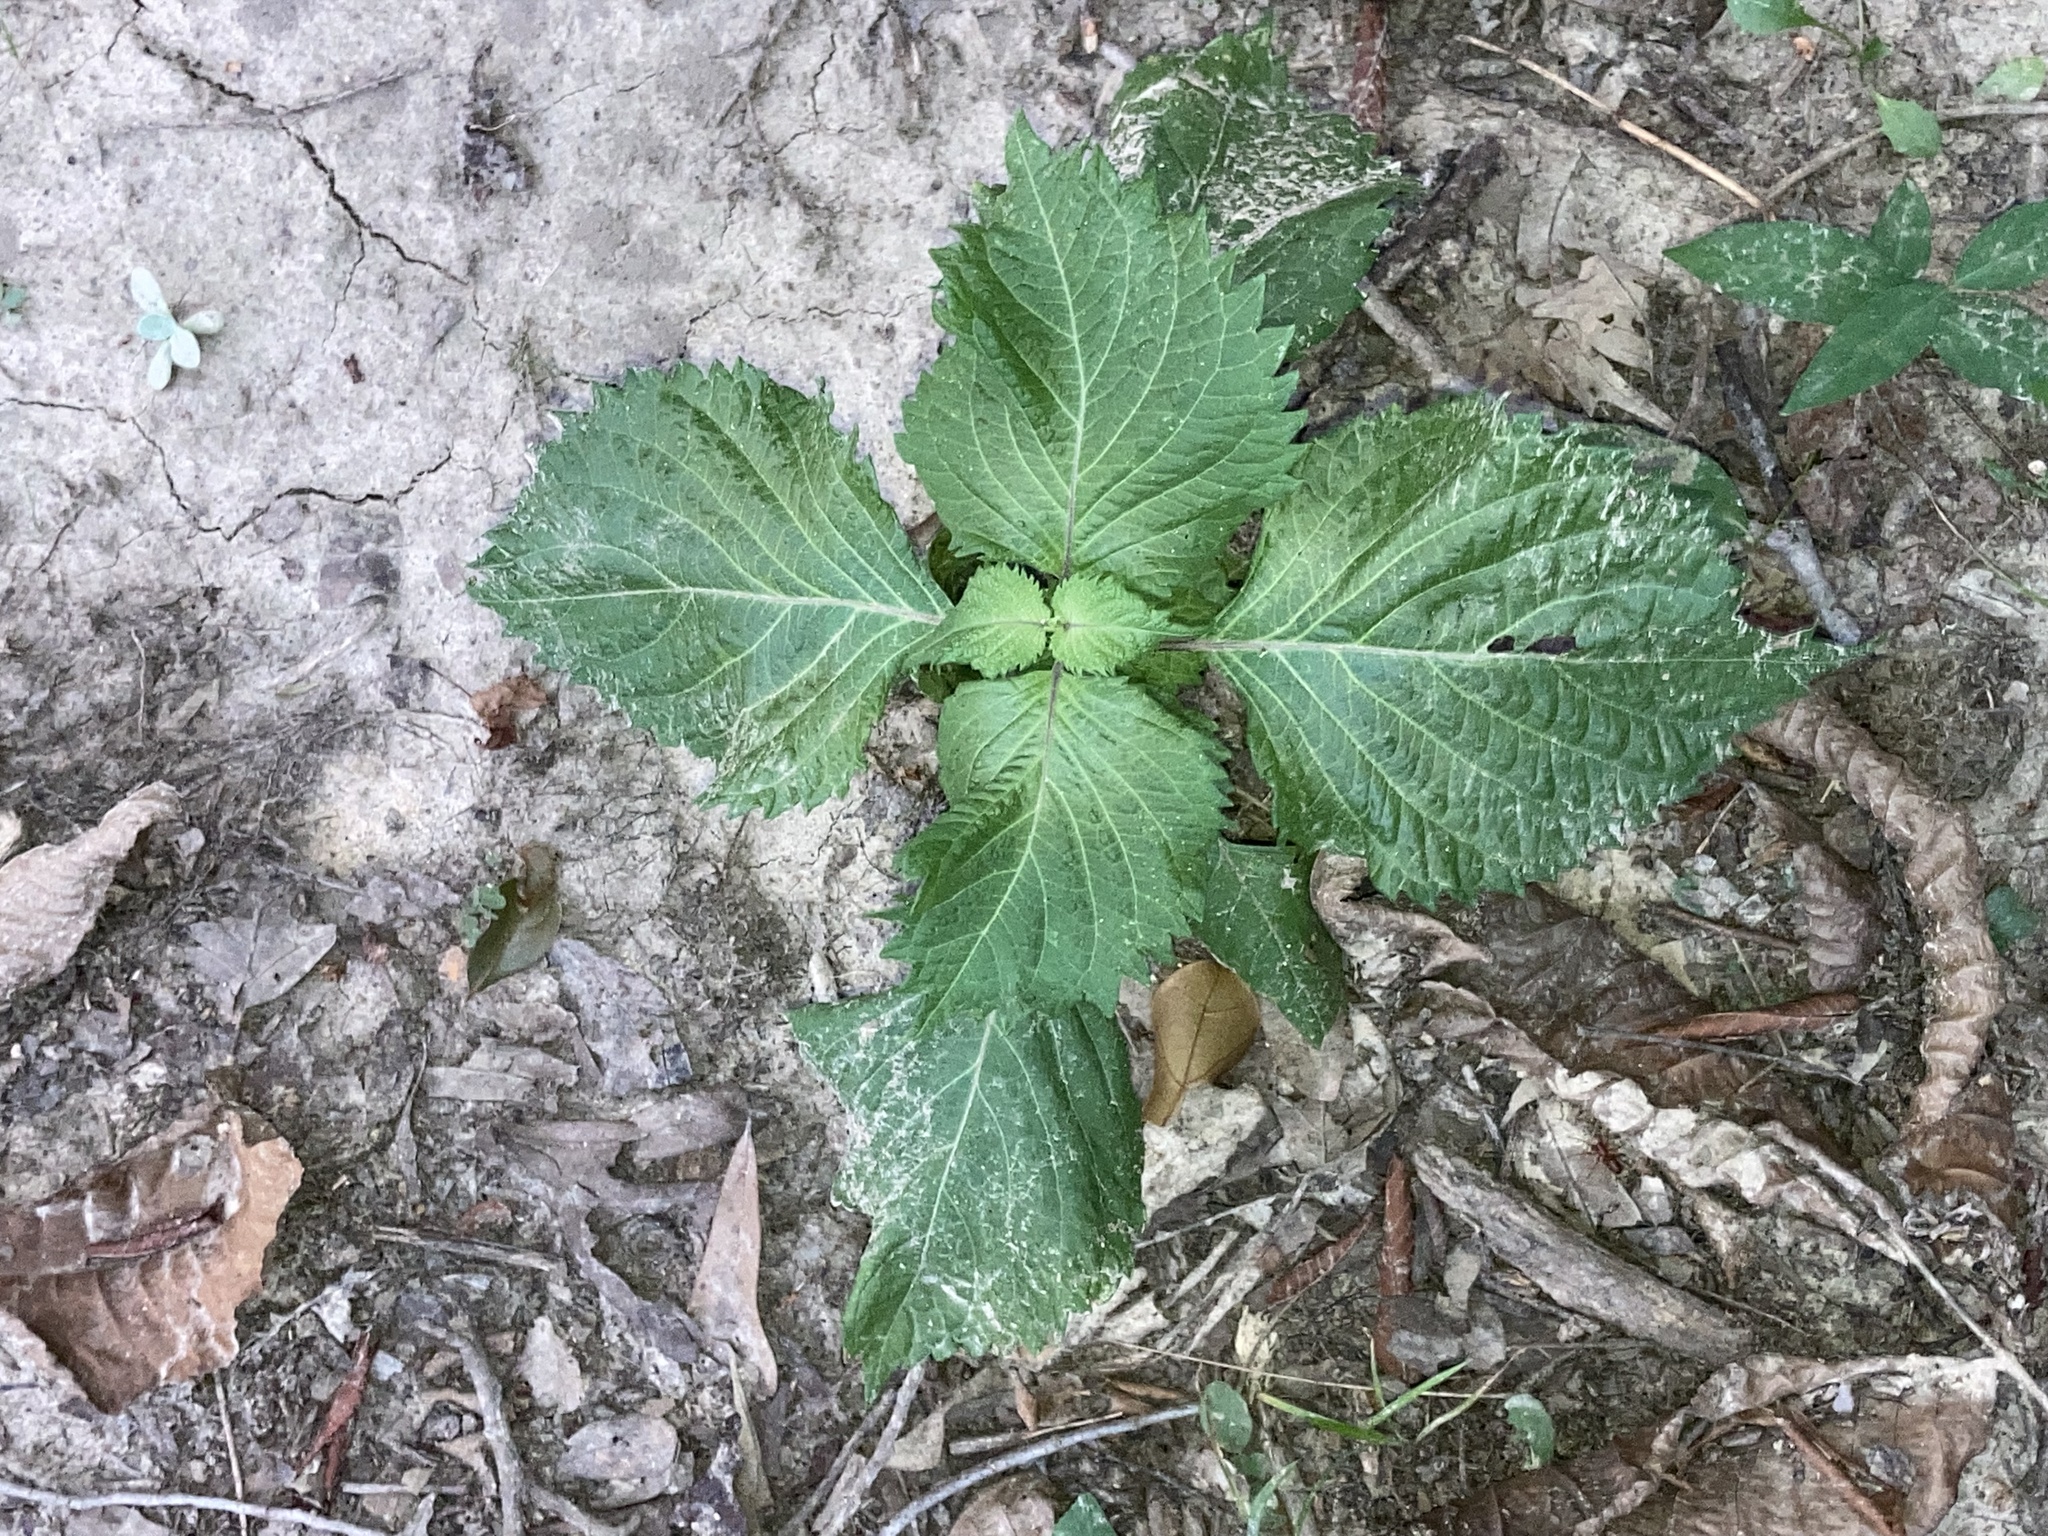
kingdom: Plantae
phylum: Tracheophyta
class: Magnoliopsida
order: Lamiales
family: Lamiaceae
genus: Perilla
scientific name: Perilla frutescens
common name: Perilla
